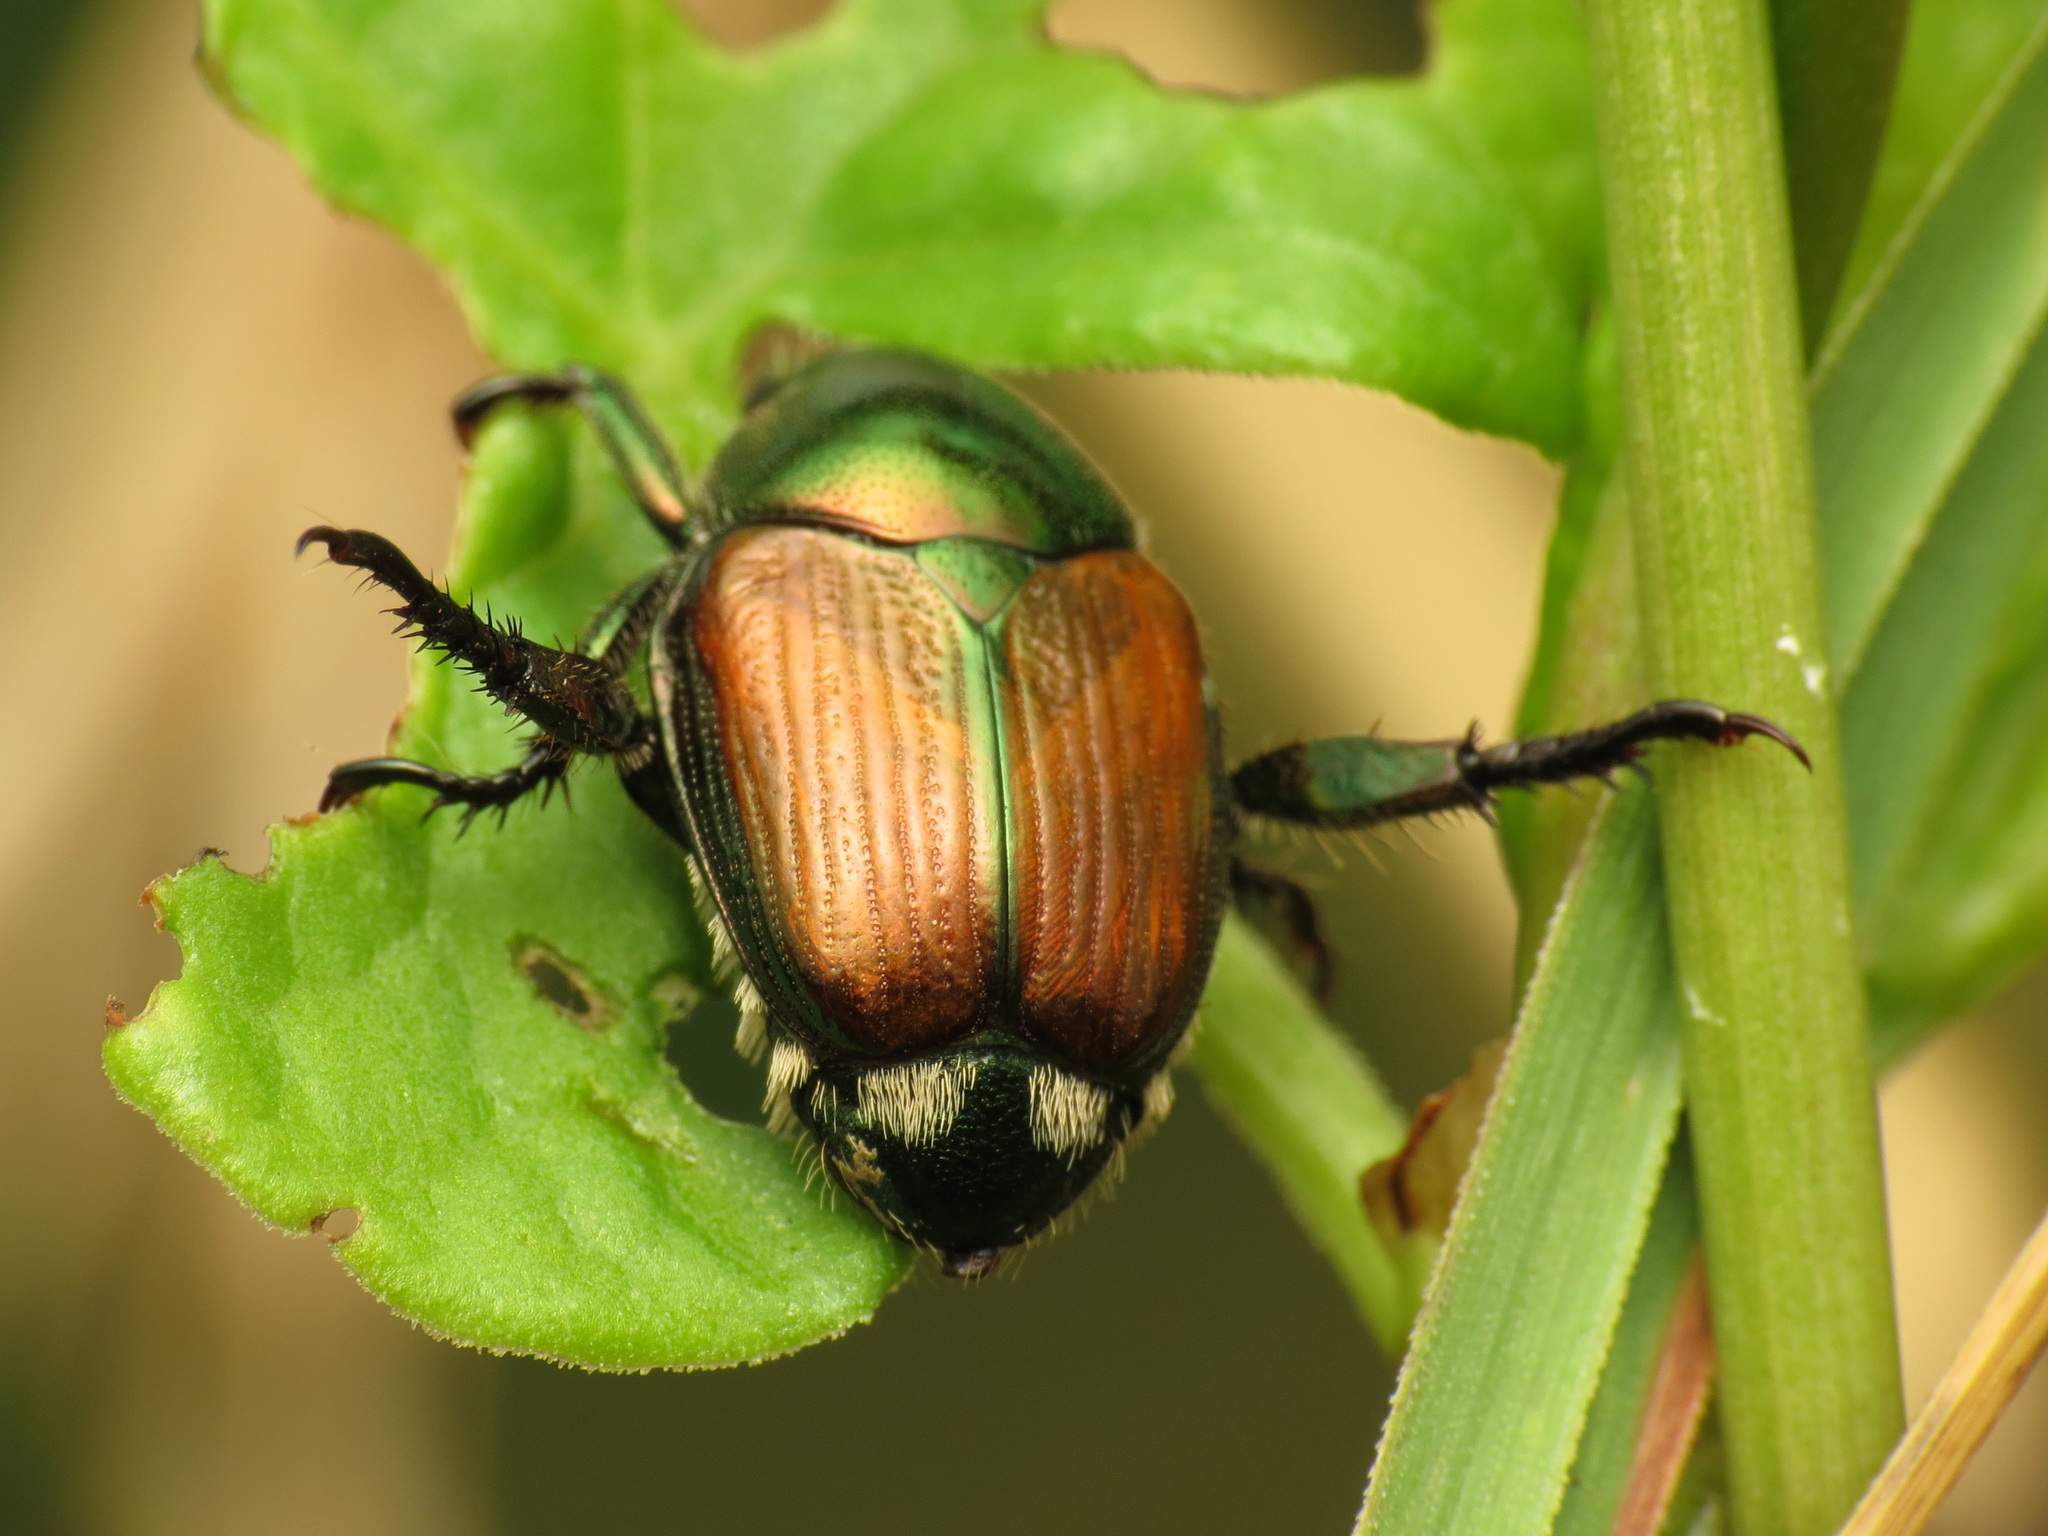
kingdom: Animalia
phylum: Arthropoda
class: Insecta
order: Coleoptera
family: Scarabaeidae
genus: Popillia
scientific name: Popillia japonica
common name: Japanese beetle
